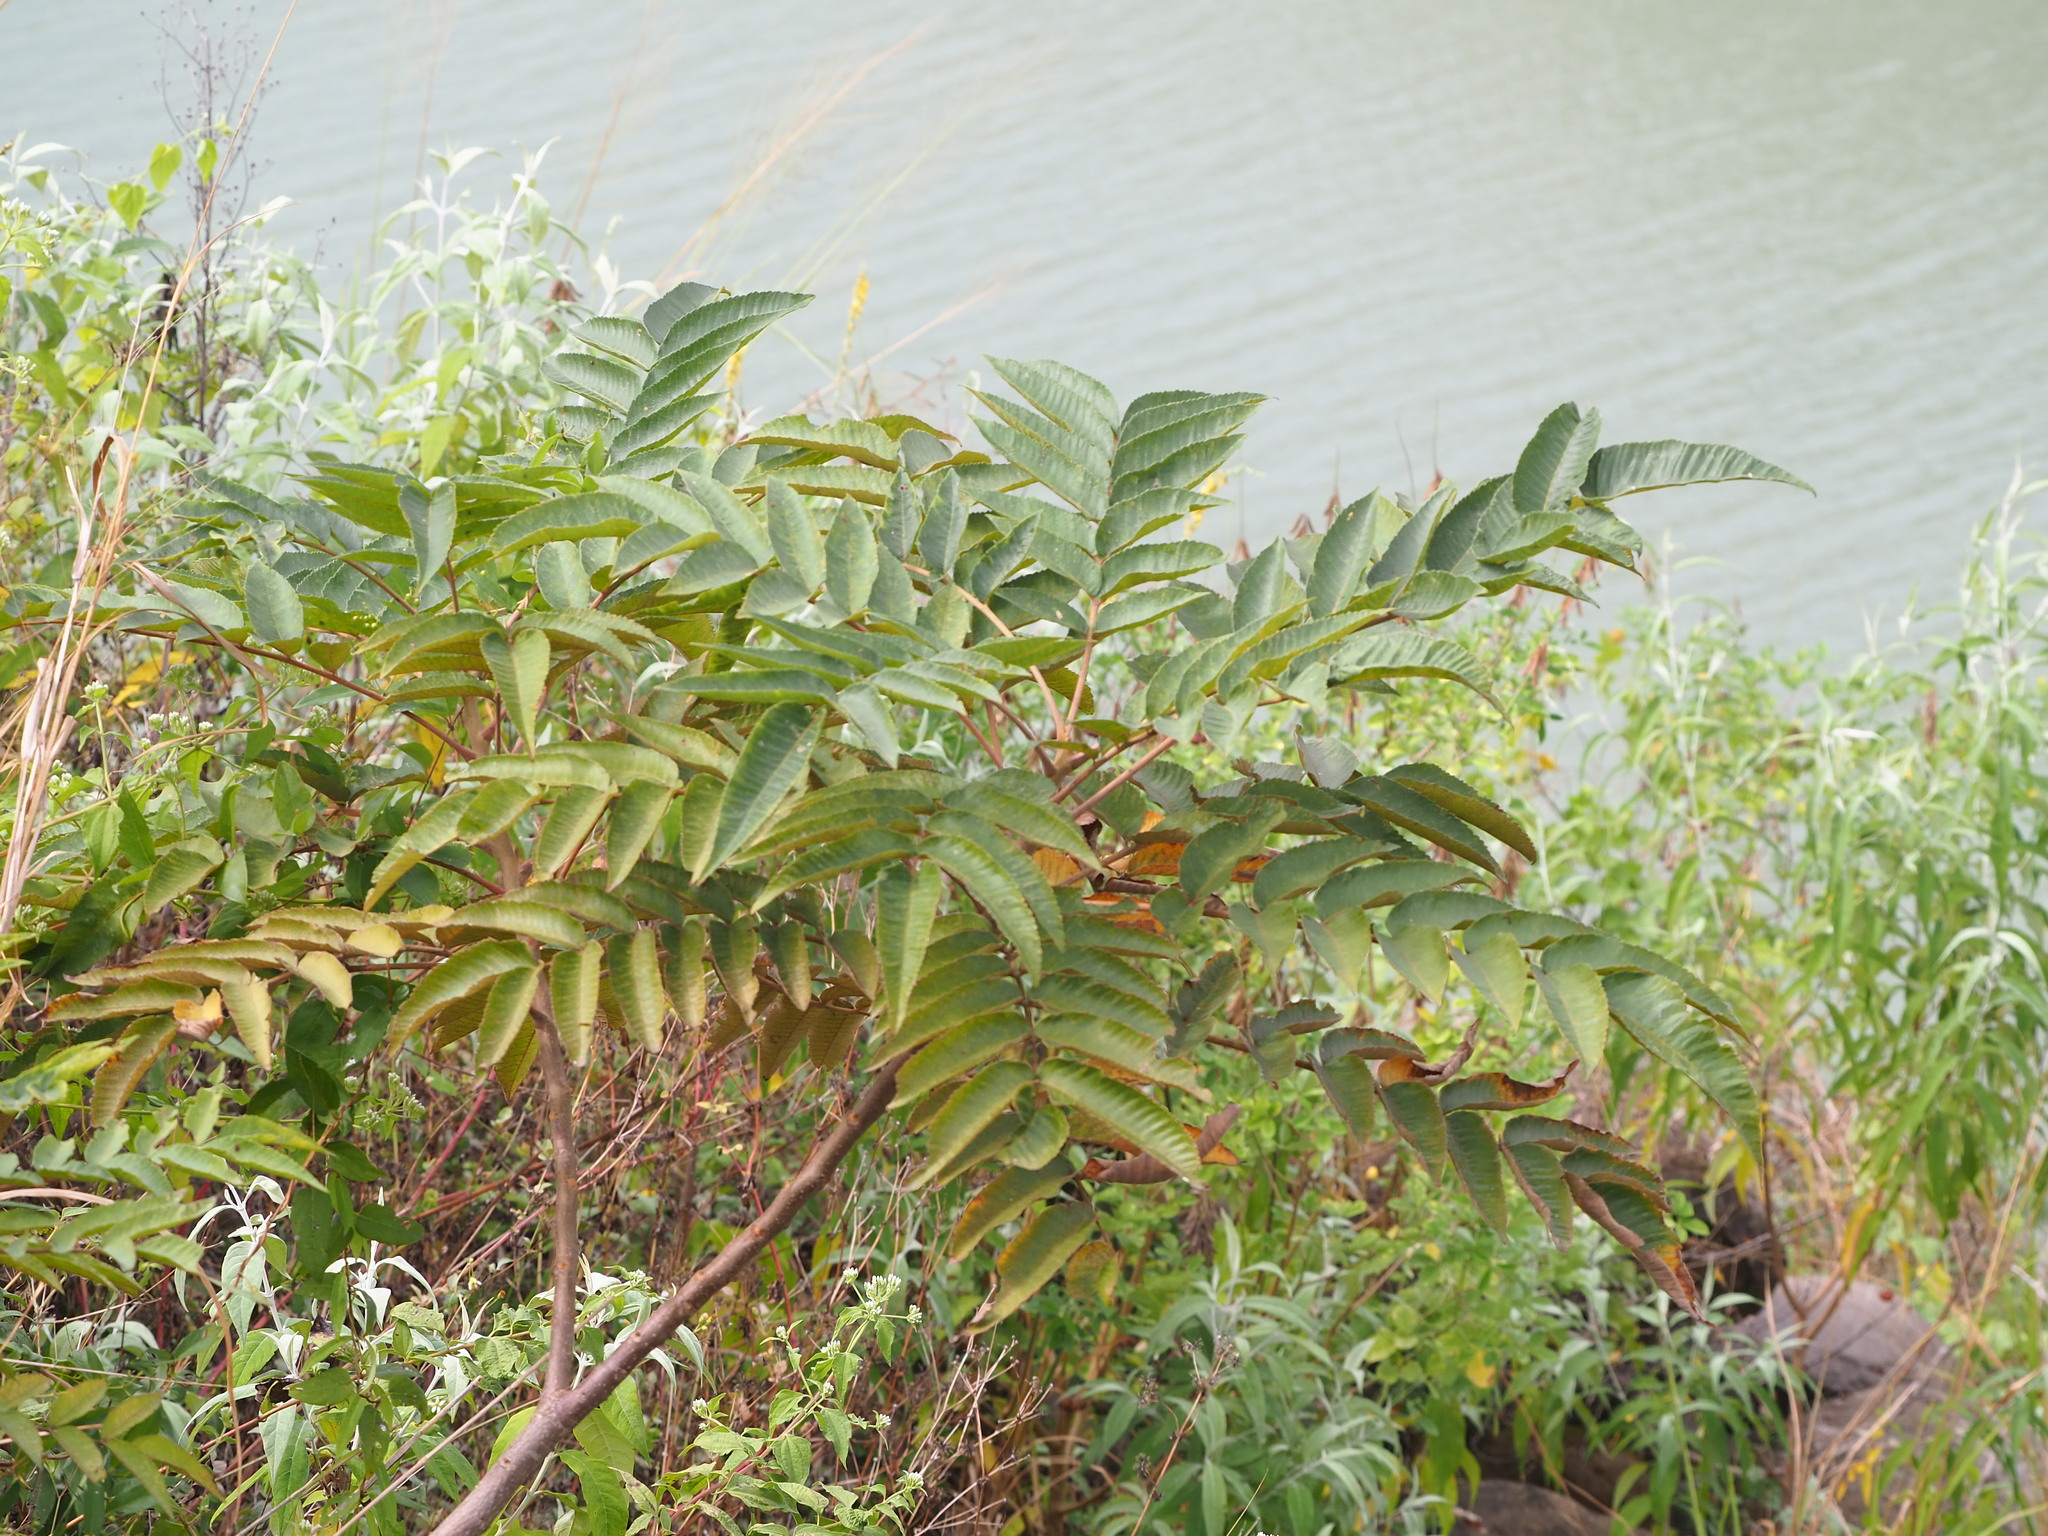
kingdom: Plantae
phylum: Tracheophyta
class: Magnoliopsida
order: Sapindales
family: Anacardiaceae
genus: Rhus
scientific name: Rhus chinensis
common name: Chinese gall
